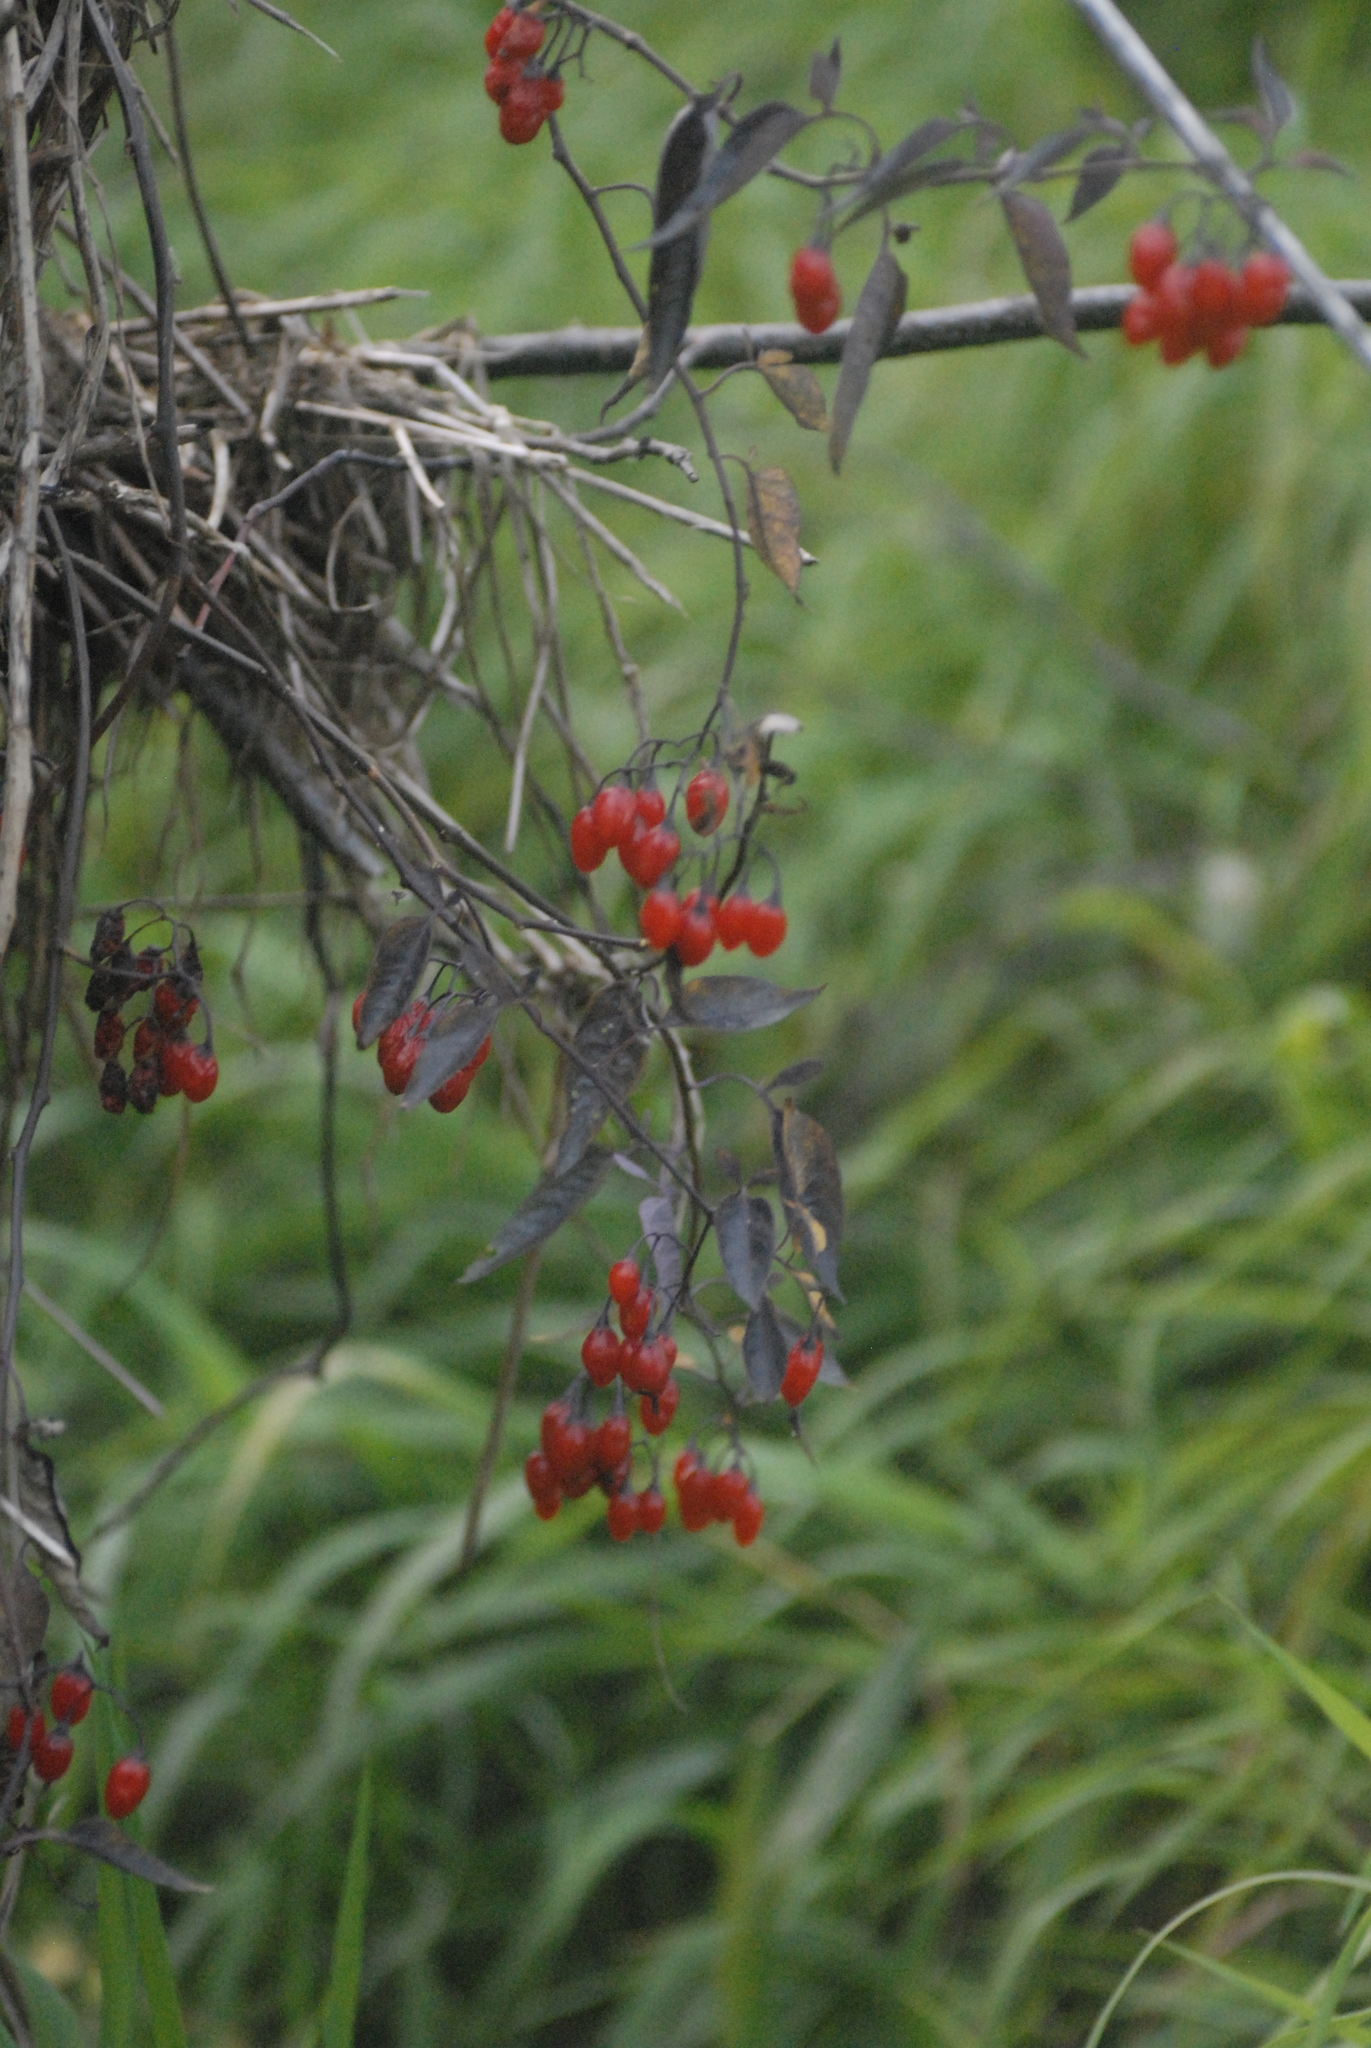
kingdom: Plantae
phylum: Tracheophyta
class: Magnoliopsida
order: Solanales
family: Solanaceae
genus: Solanum
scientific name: Solanum dulcamara
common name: Climbing nightshade
